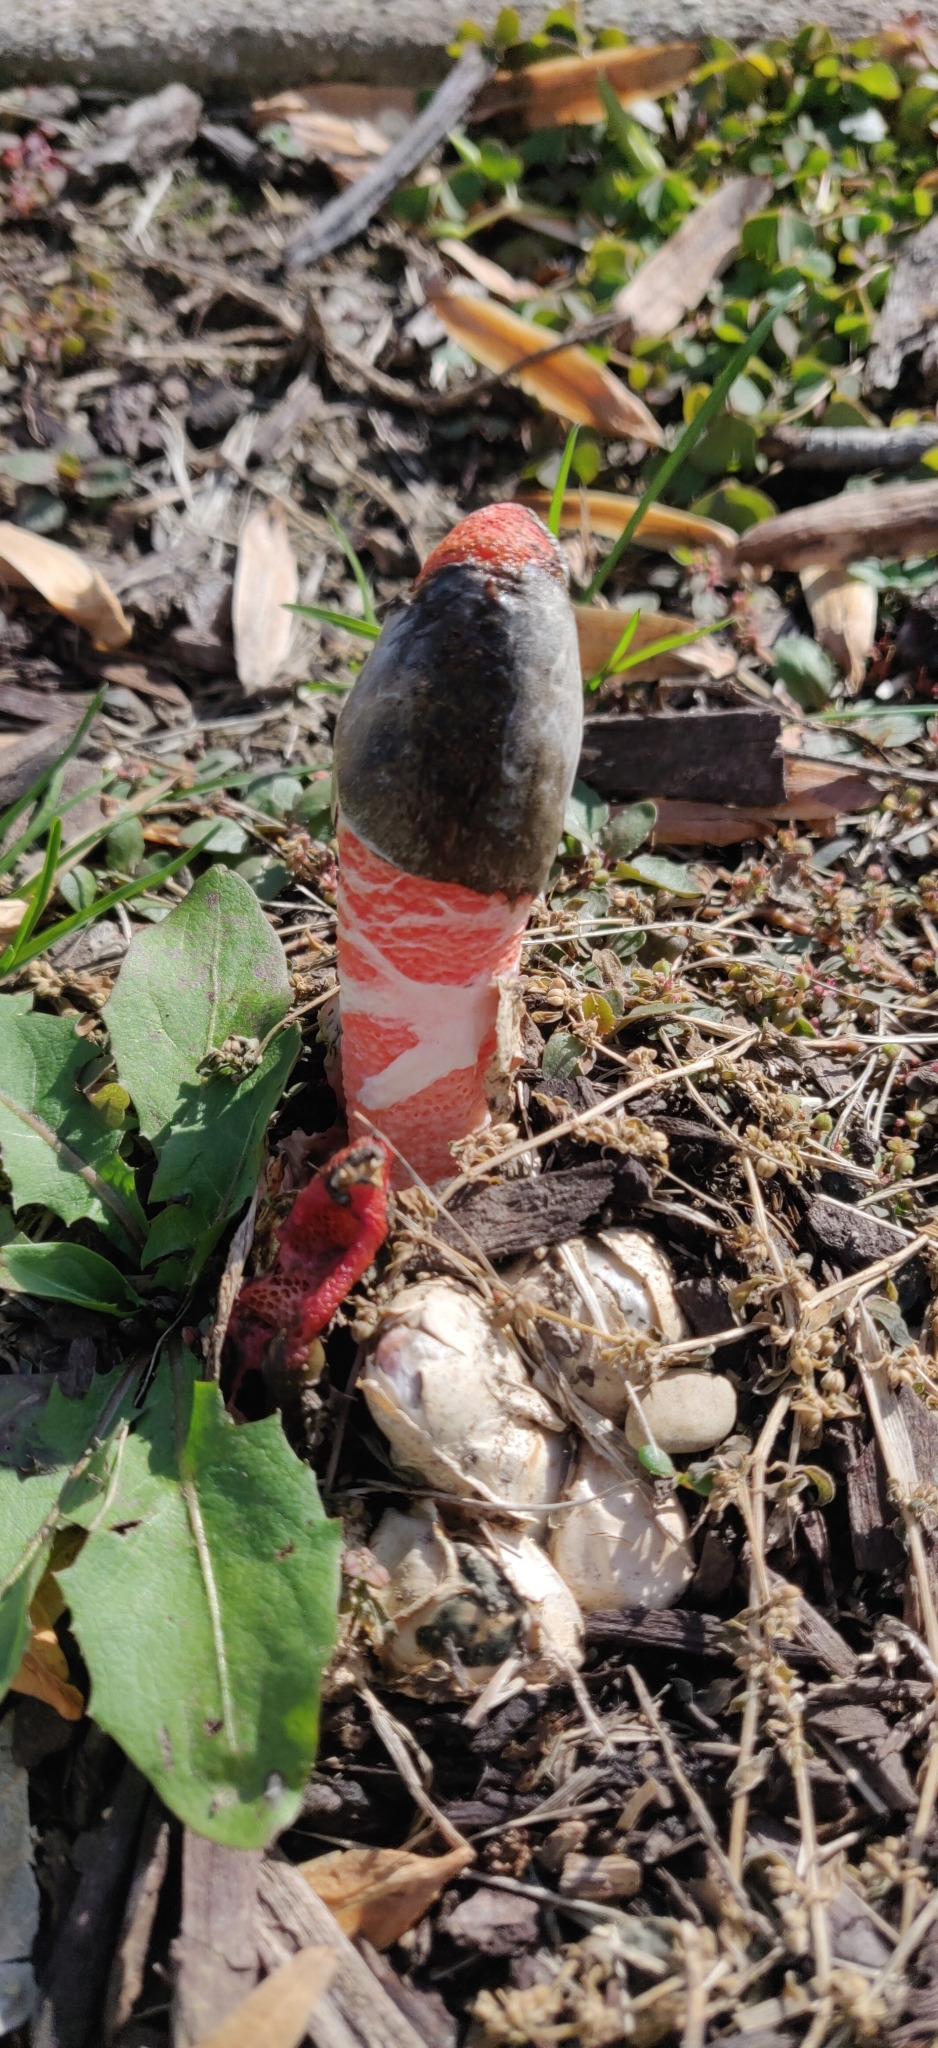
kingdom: Fungi
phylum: Basidiomycota
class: Agaricomycetes
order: Phallales
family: Phallaceae
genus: Mutinus
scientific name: Mutinus elegans
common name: Devil's dipstick
